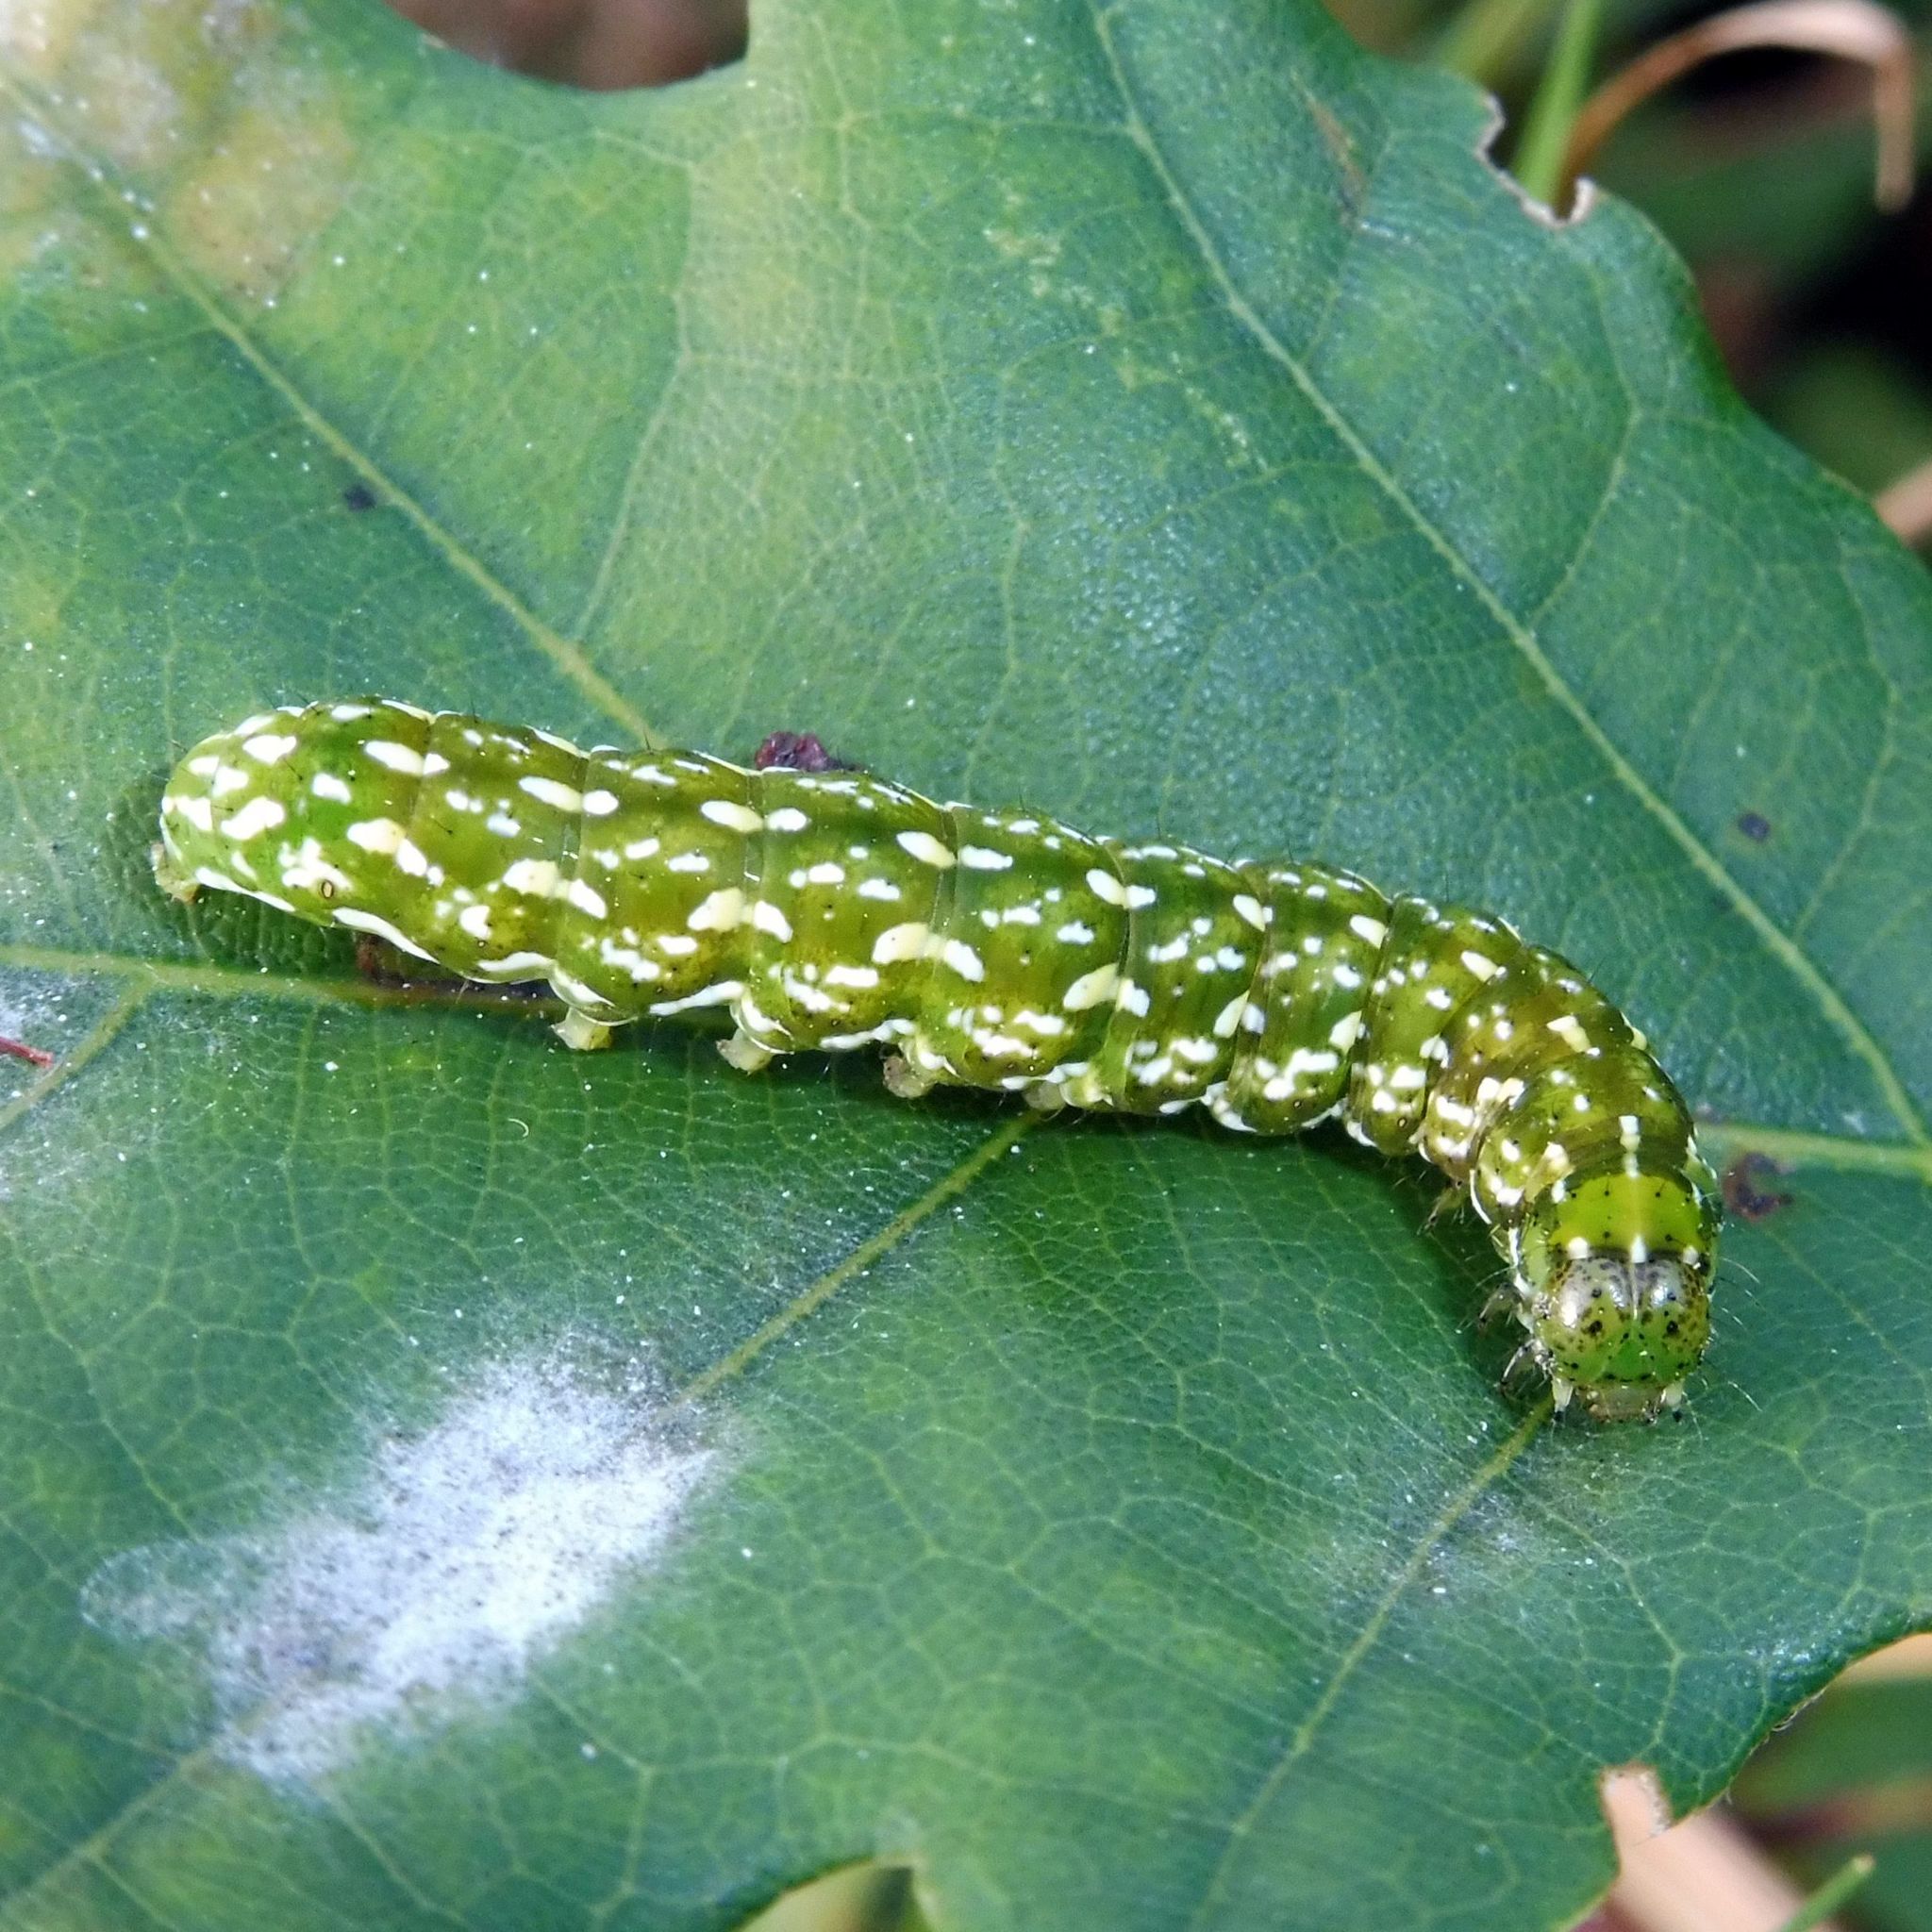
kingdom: Animalia
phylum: Arthropoda
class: Insecta
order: Lepidoptera
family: Noctuidae
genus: Anarta
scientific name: Anarta myrtilli
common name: Beautiful yellow underwing
